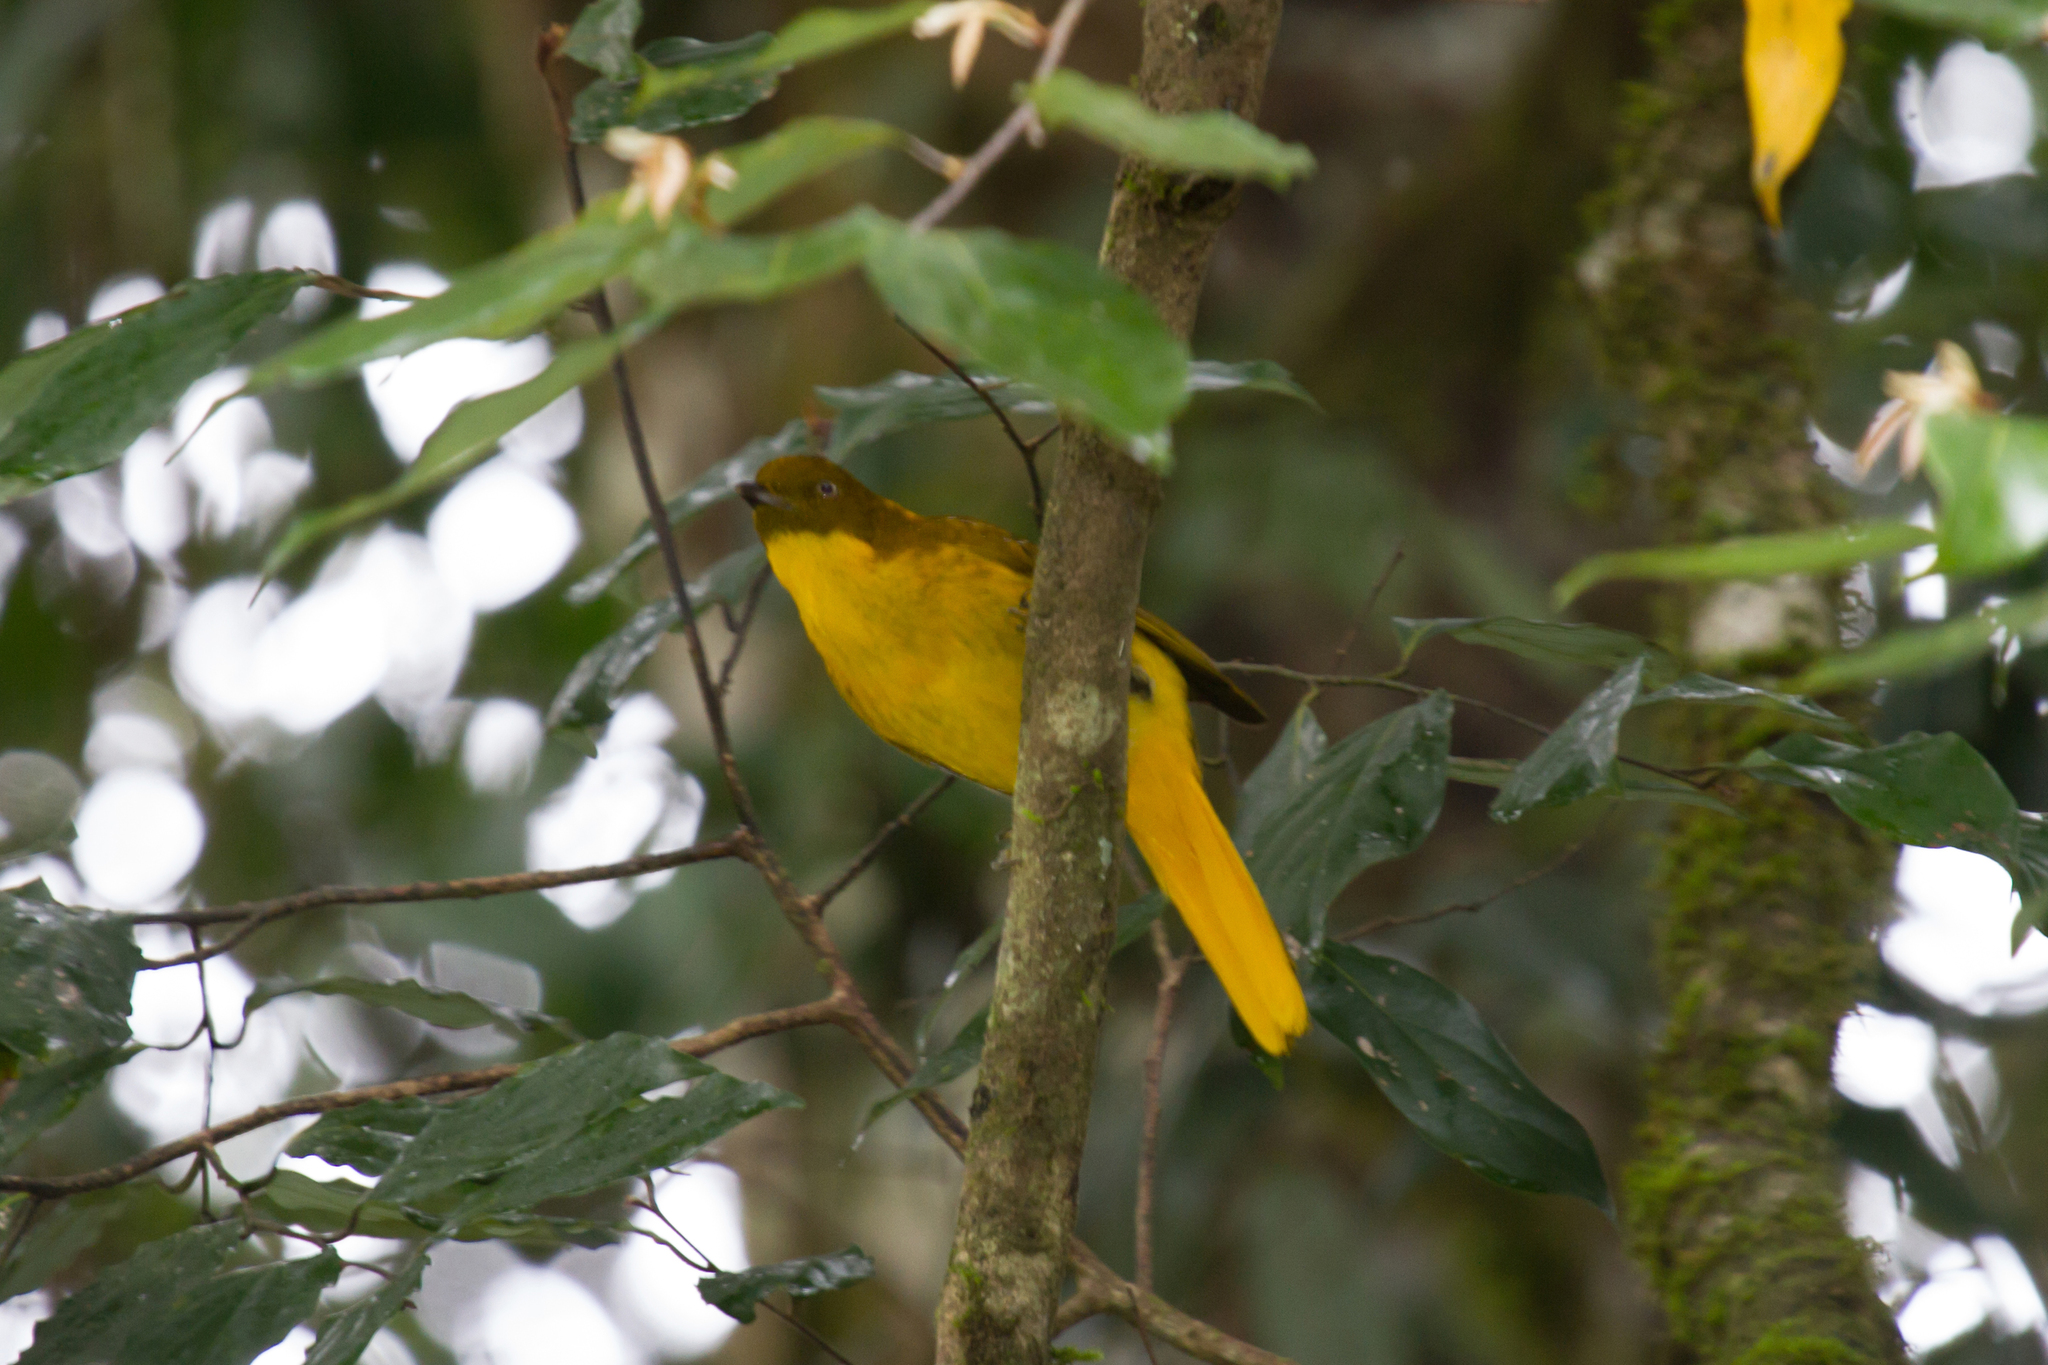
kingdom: Animalia
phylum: Chordata
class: Aves
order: Passeriformes
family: Ptilonorhynchidae
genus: Prionodura
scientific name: Prionodura newtoniana
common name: Golden bowerbird
